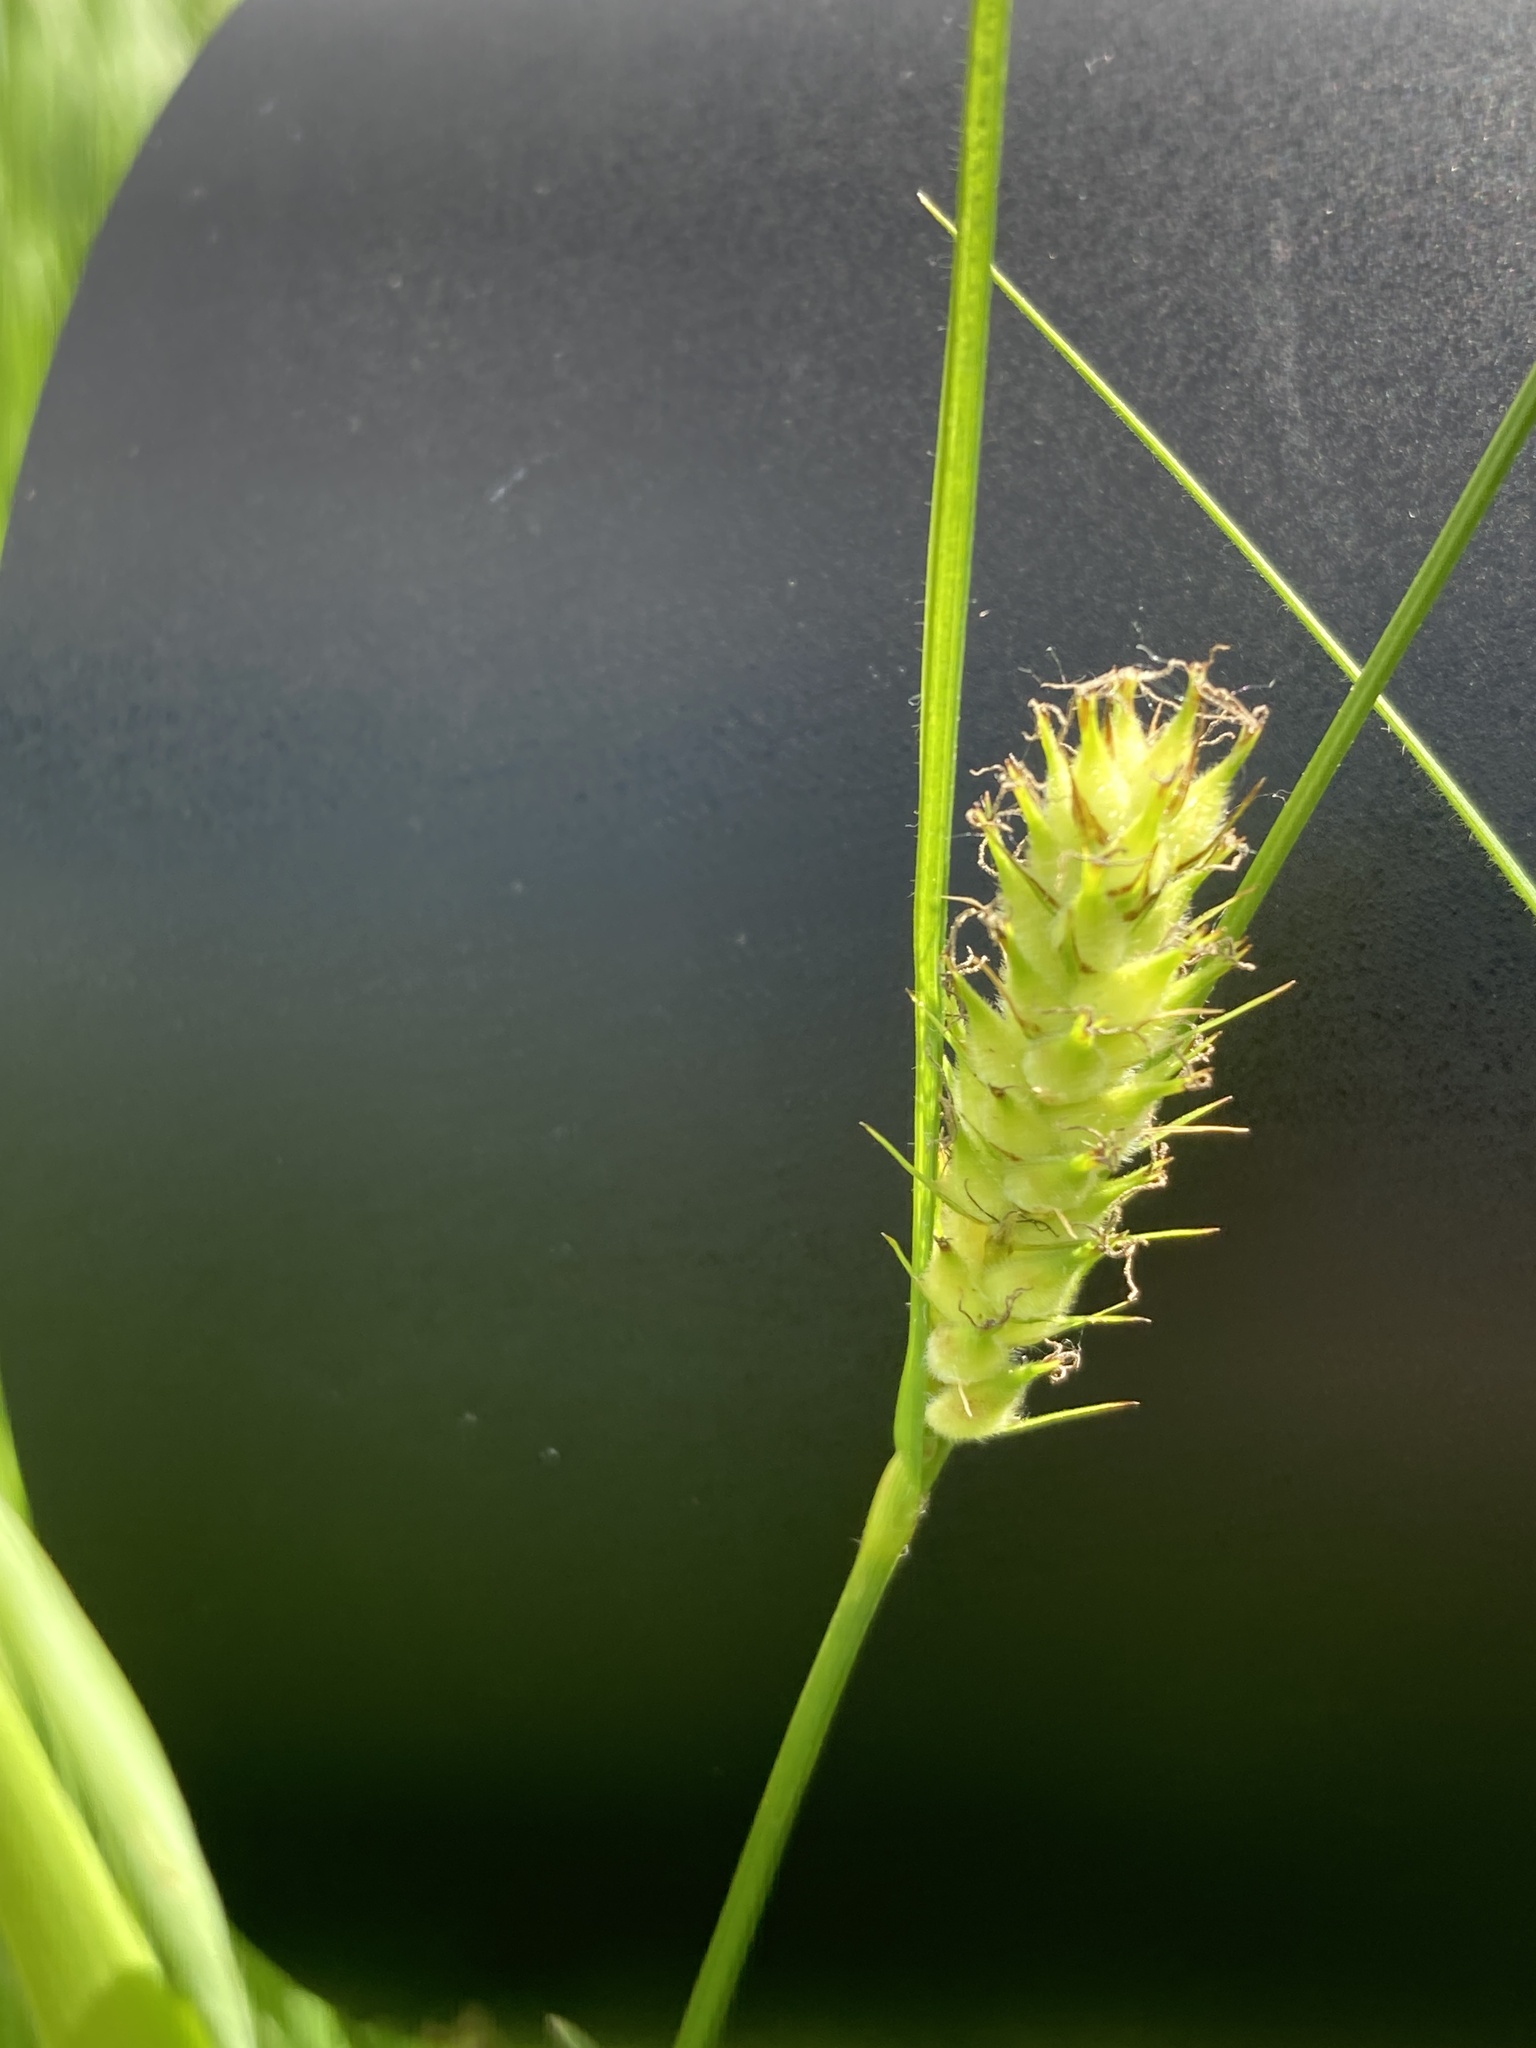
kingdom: Plantae
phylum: Tracheophyta
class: Liliopsida
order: Poales
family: Cyperaceae
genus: Carex
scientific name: Carex hirta
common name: Hairy sedge
